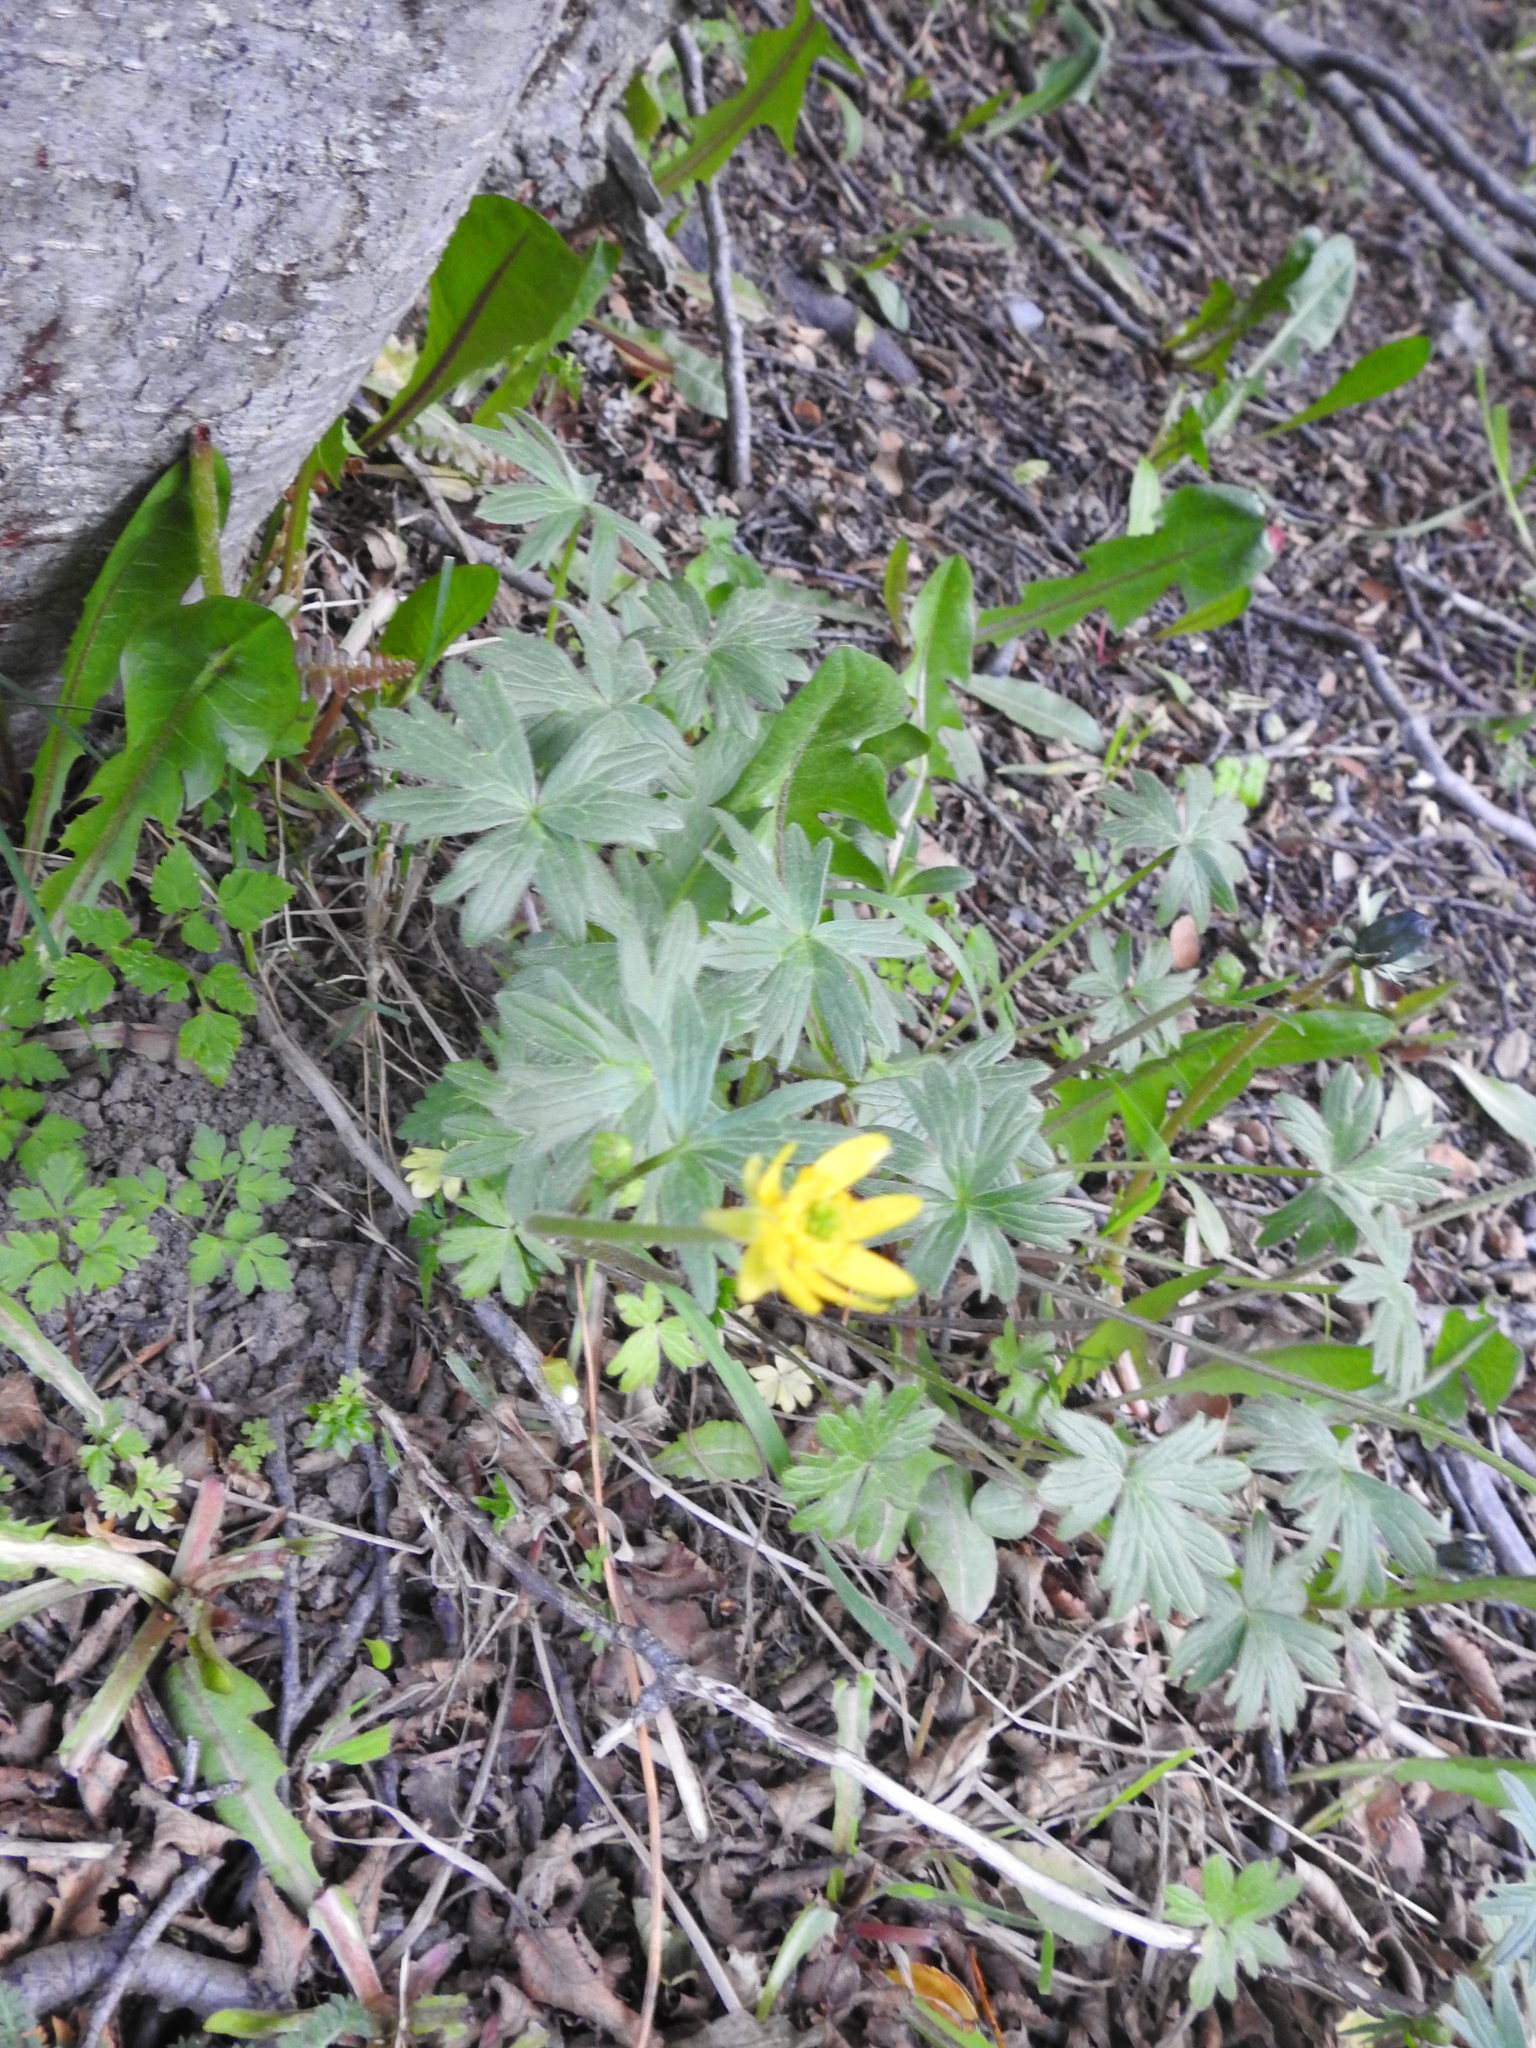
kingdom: Plantae
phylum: Tracheophyta
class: Magnoliopsida
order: Ranunculales
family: Ranunculaceae
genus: Ranunculus
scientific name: Ranunculus peduncularis
